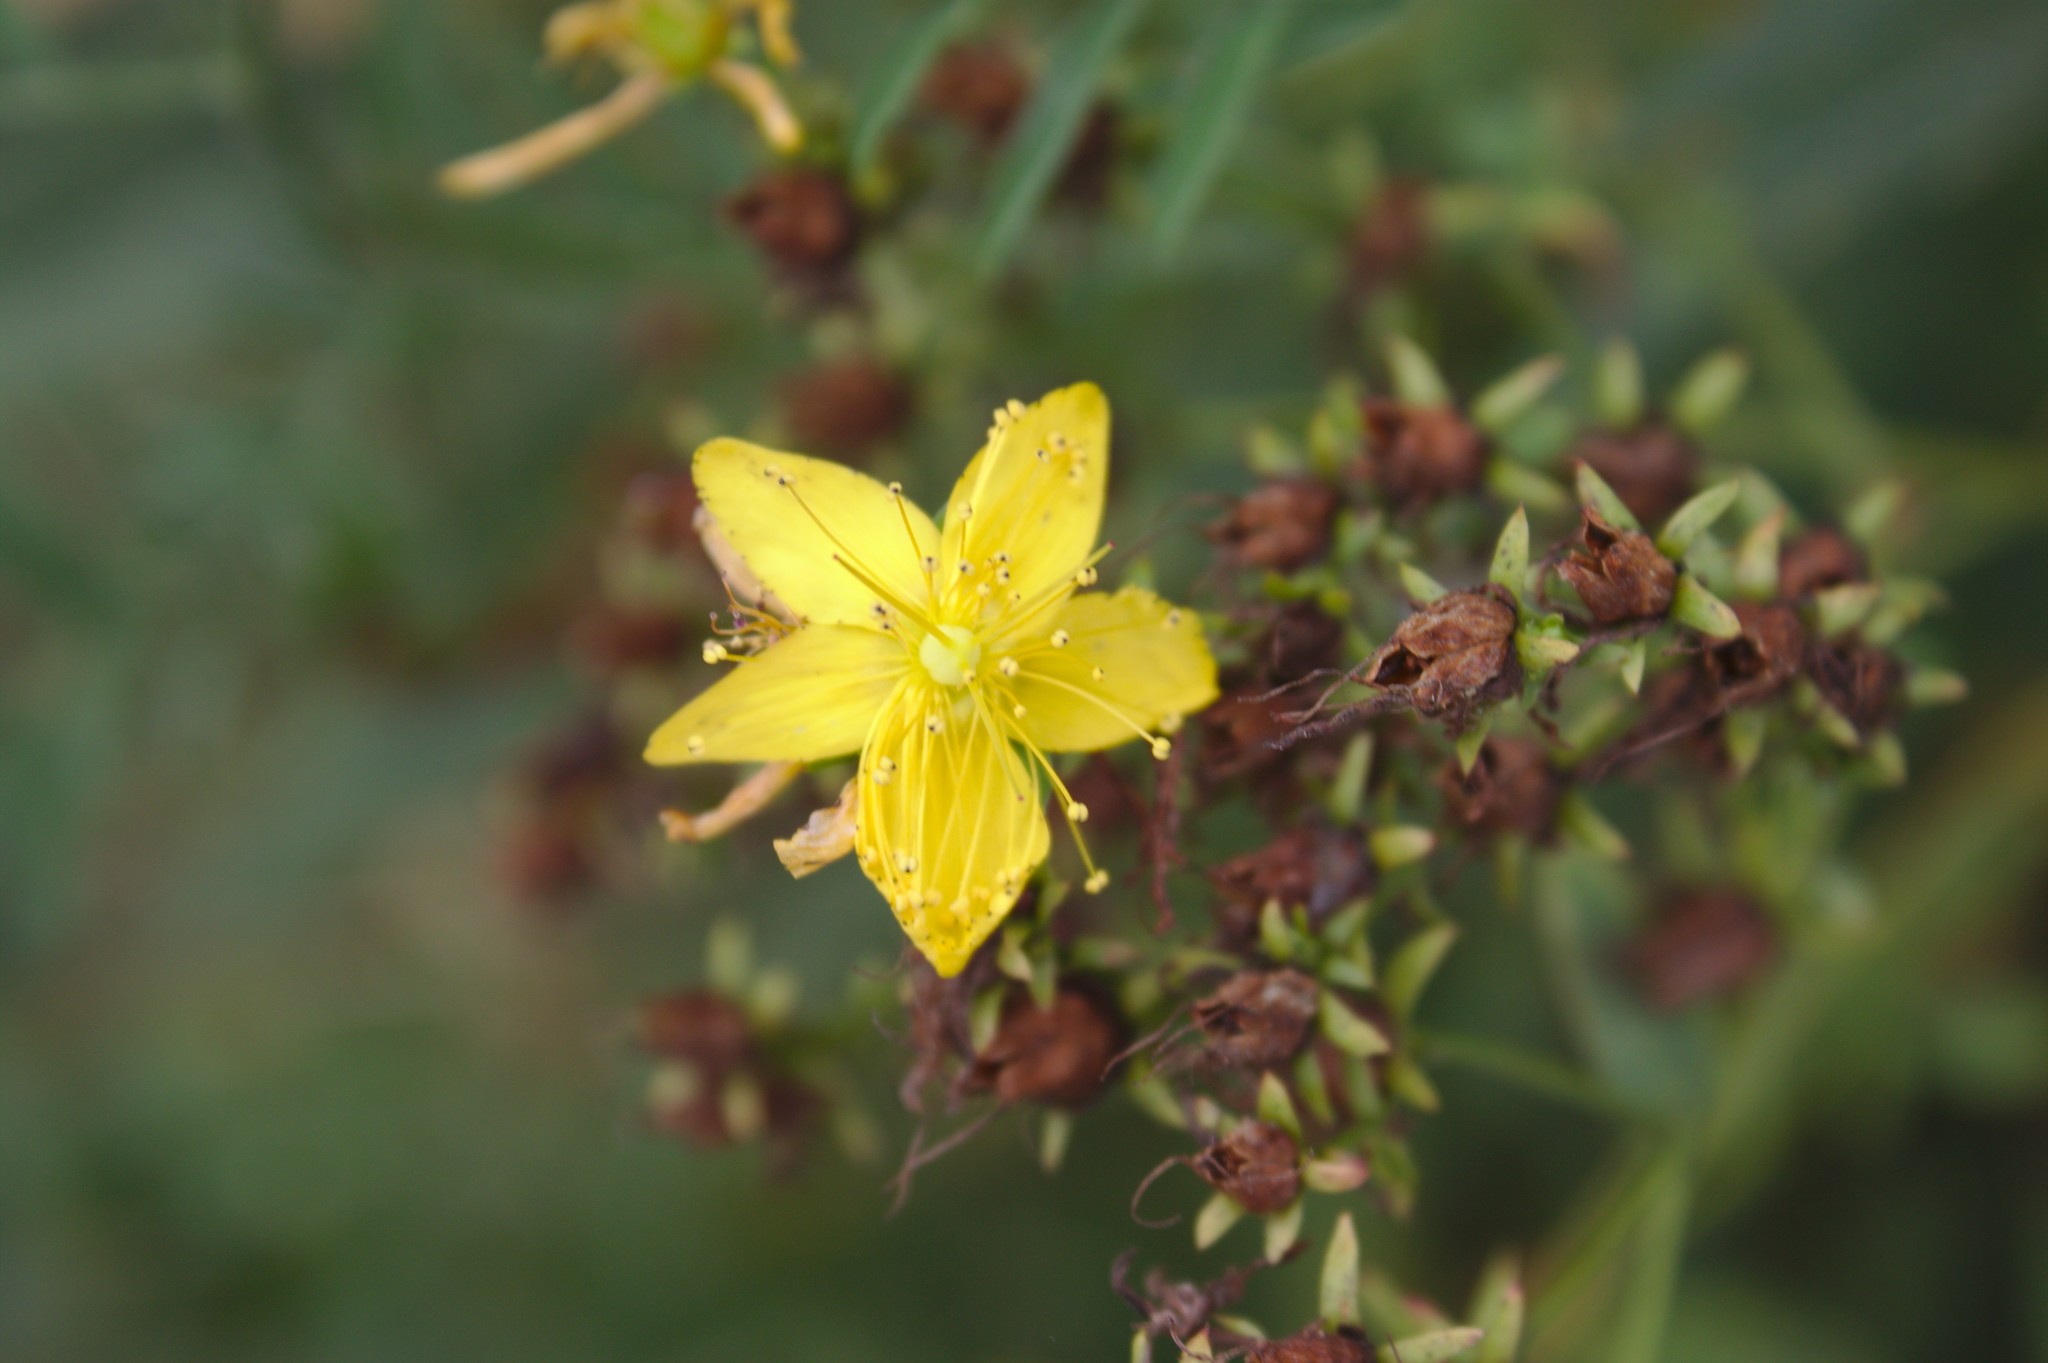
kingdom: Plantae
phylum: Tracheophyta
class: Magnoliopsida
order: Malpighiales
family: Hypericaceae
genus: Hypericum
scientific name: Hypericum perforatum
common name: Common st. johnswort
